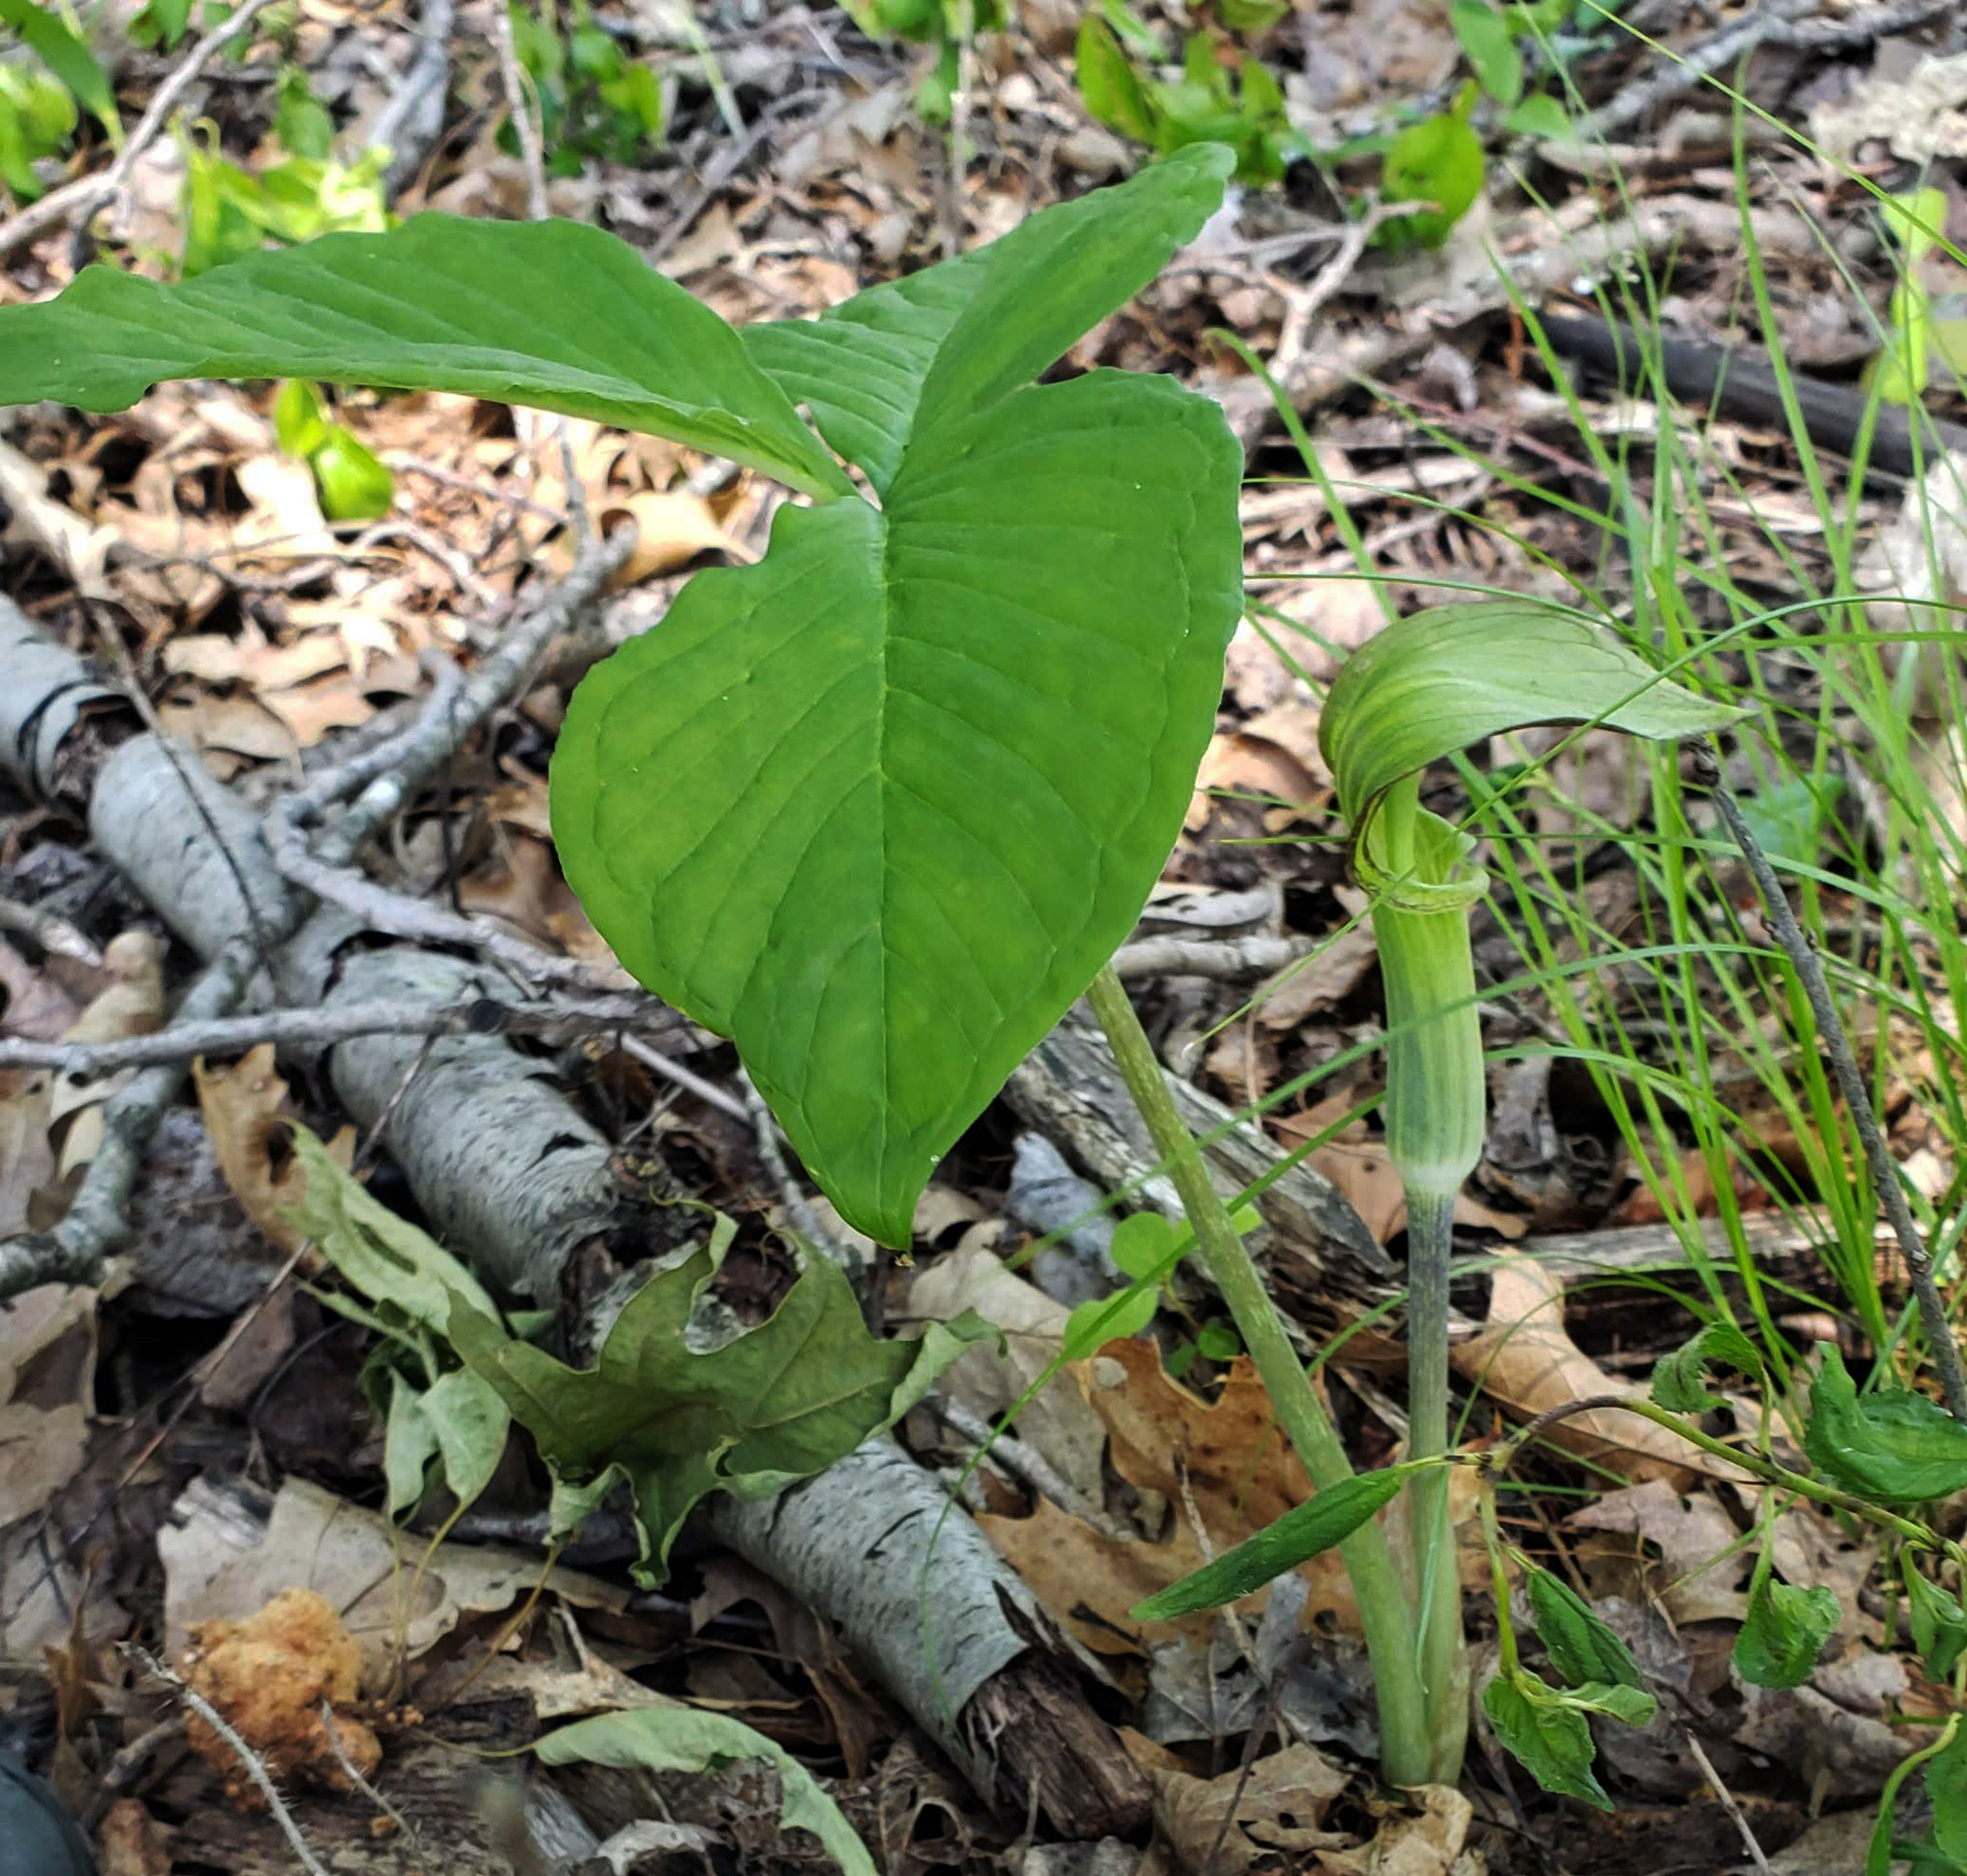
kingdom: Plantae
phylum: Tracheophyta
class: Liliopsida
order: Alismatales
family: Araceae
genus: Arisaema
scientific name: Arisaema triphyllum
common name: Jack-in-the-pulpit
